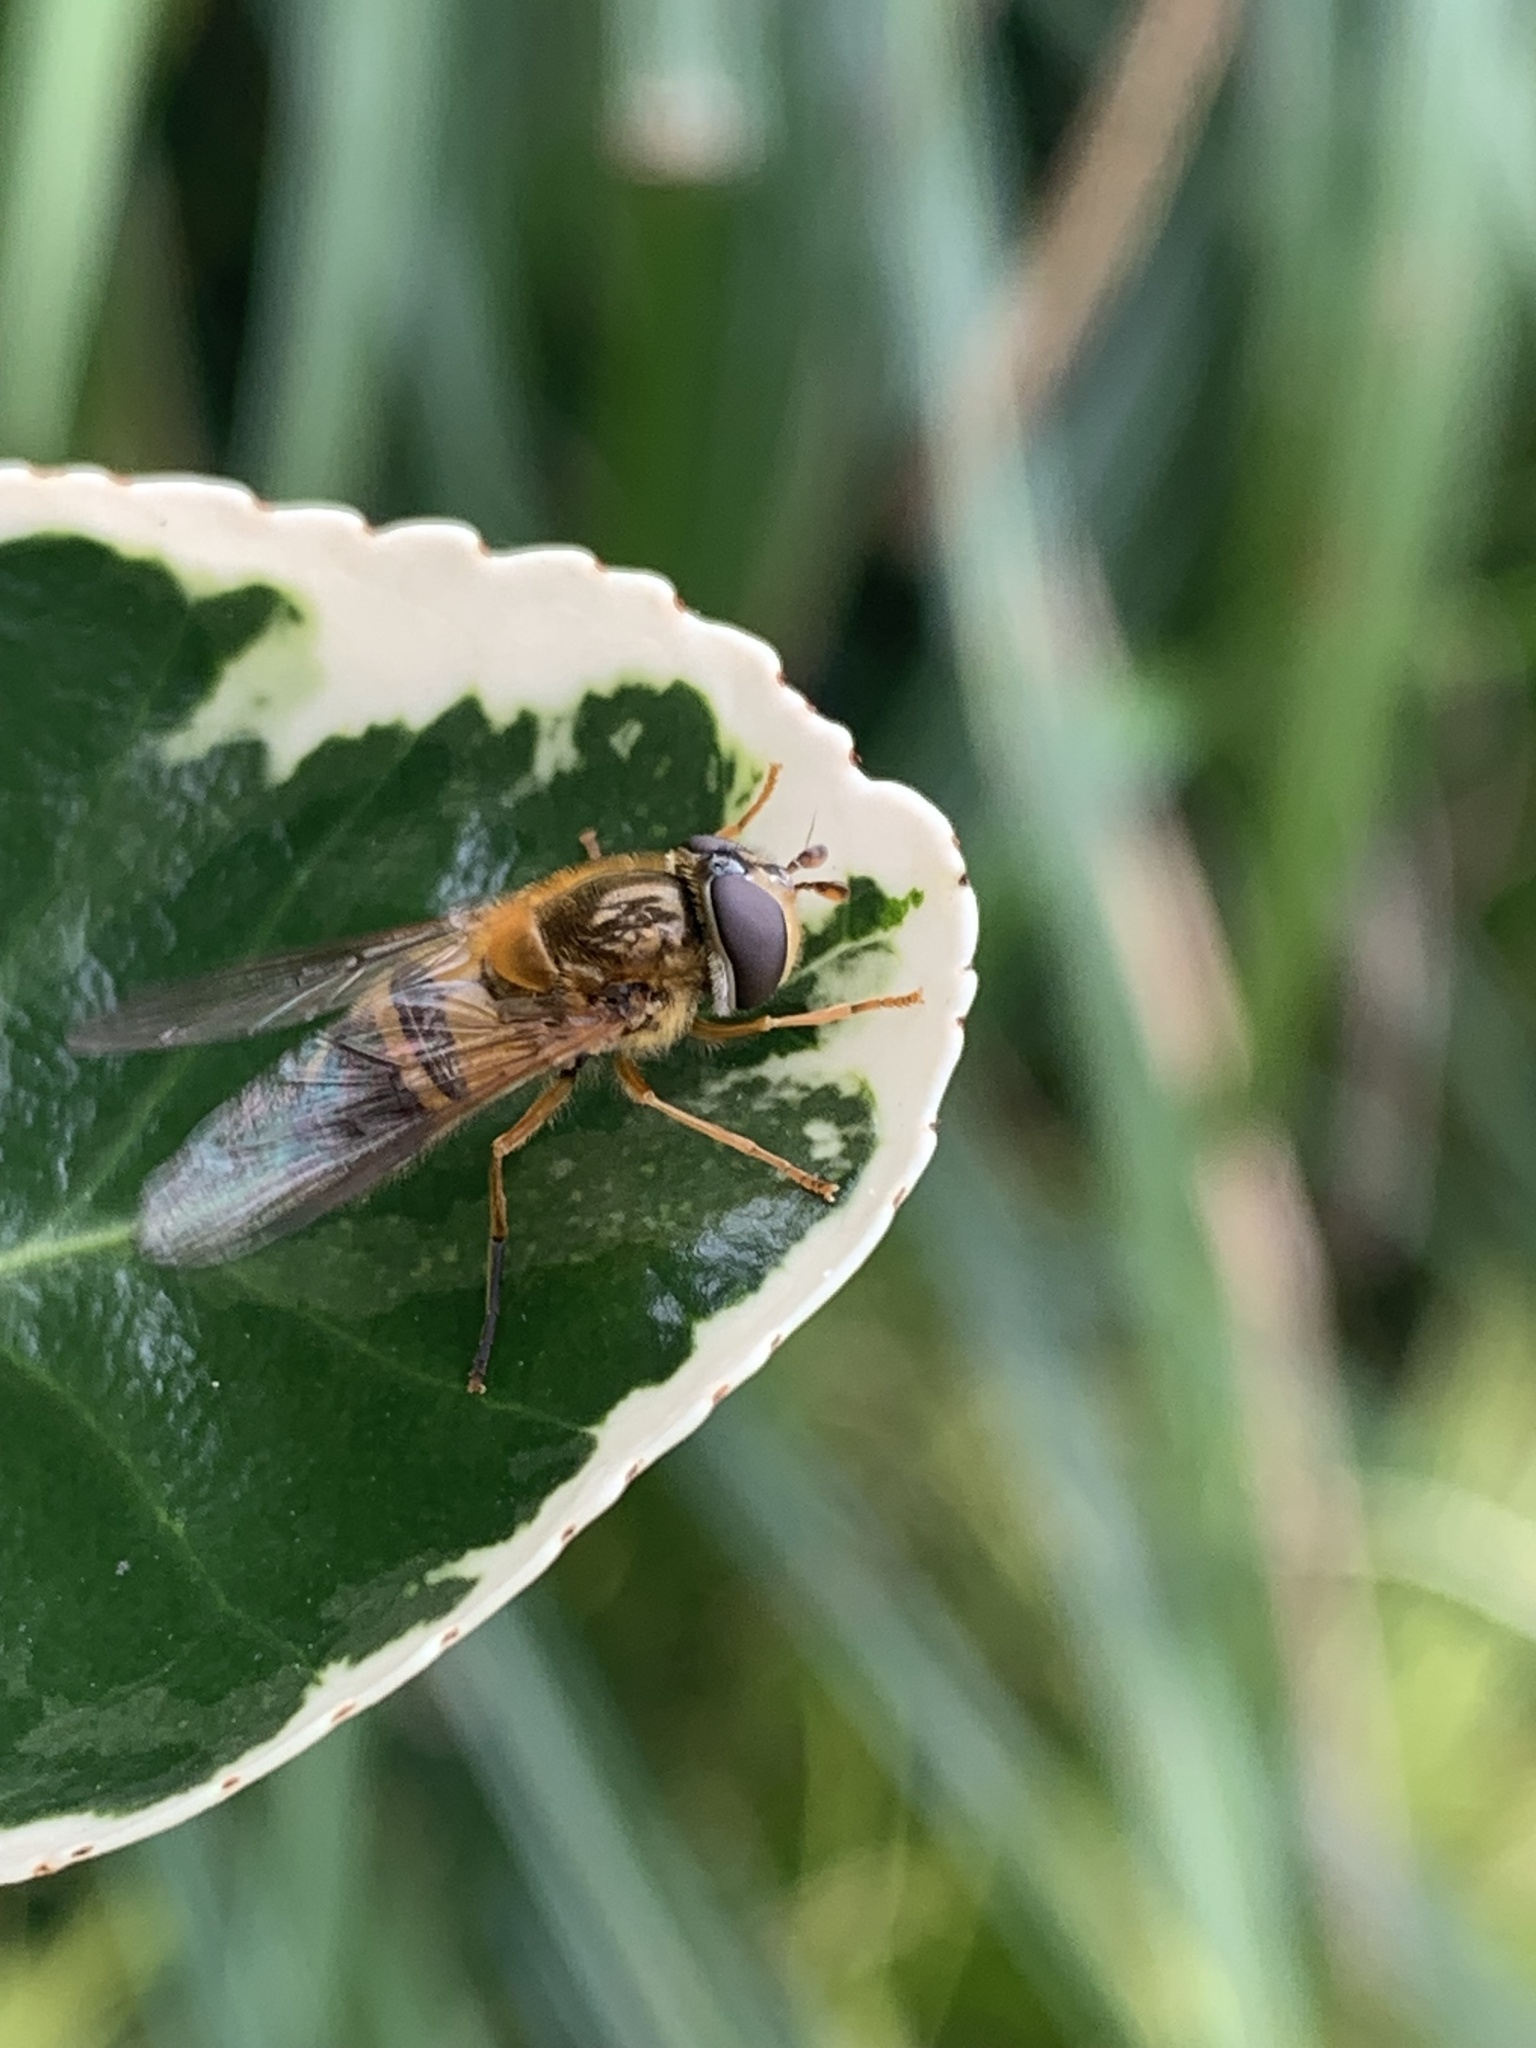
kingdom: Animalia
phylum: Arthropoda
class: Insecta
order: Diptera
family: Syrphidae
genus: Epistrophe
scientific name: Epistrophe eligans
